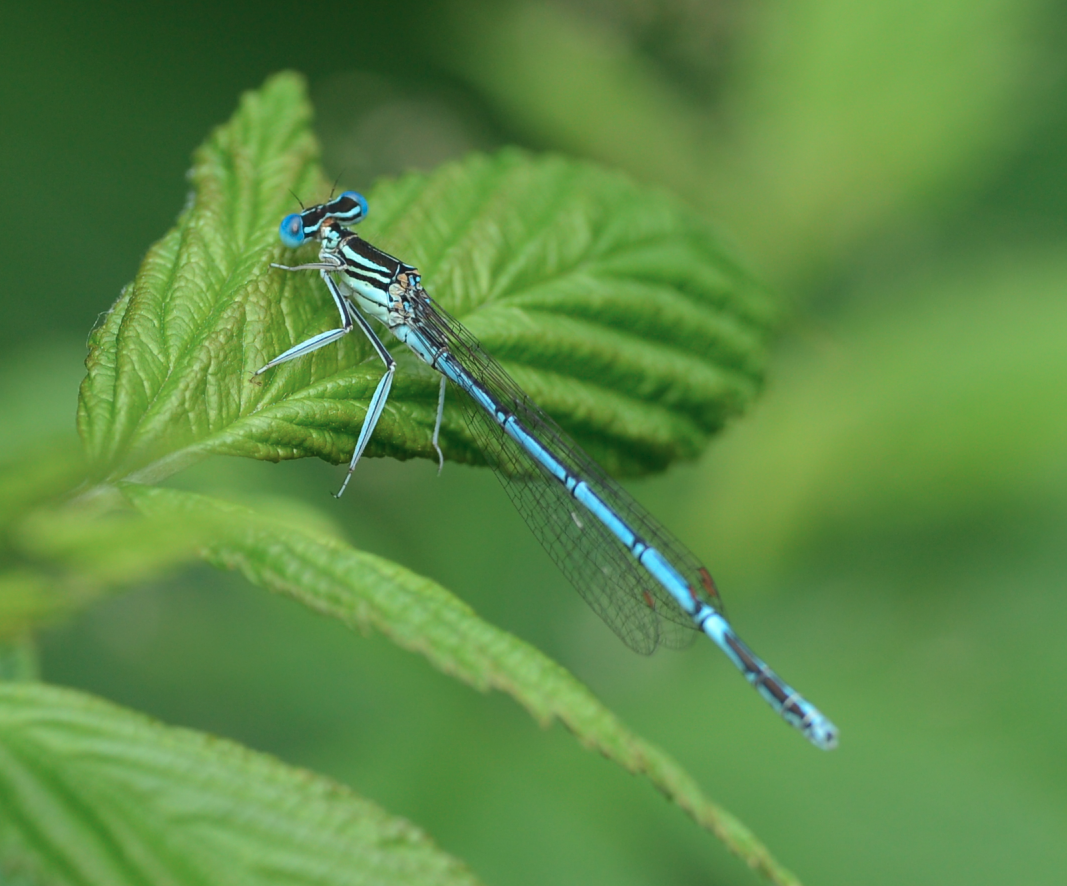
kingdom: Animalia
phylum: Arthropoda
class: Insecta
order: Odonata
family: Platycnemididae
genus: Platycnemis
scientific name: Platycnemis pennipes
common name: White-legged damselfly
